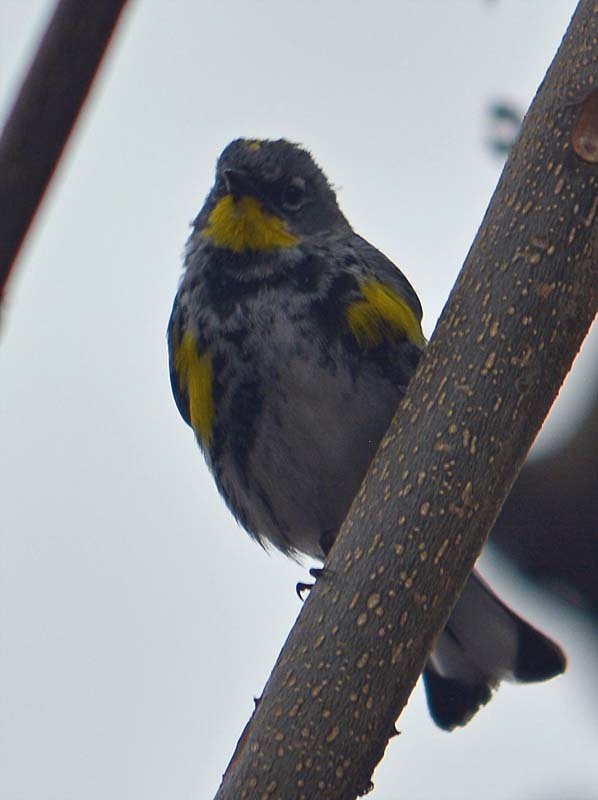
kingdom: Animalia
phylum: Chordata
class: Aves
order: Passeriformes
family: Parulidae
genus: Setophaga
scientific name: Setophaga auduboni
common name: Audubon's warbler
